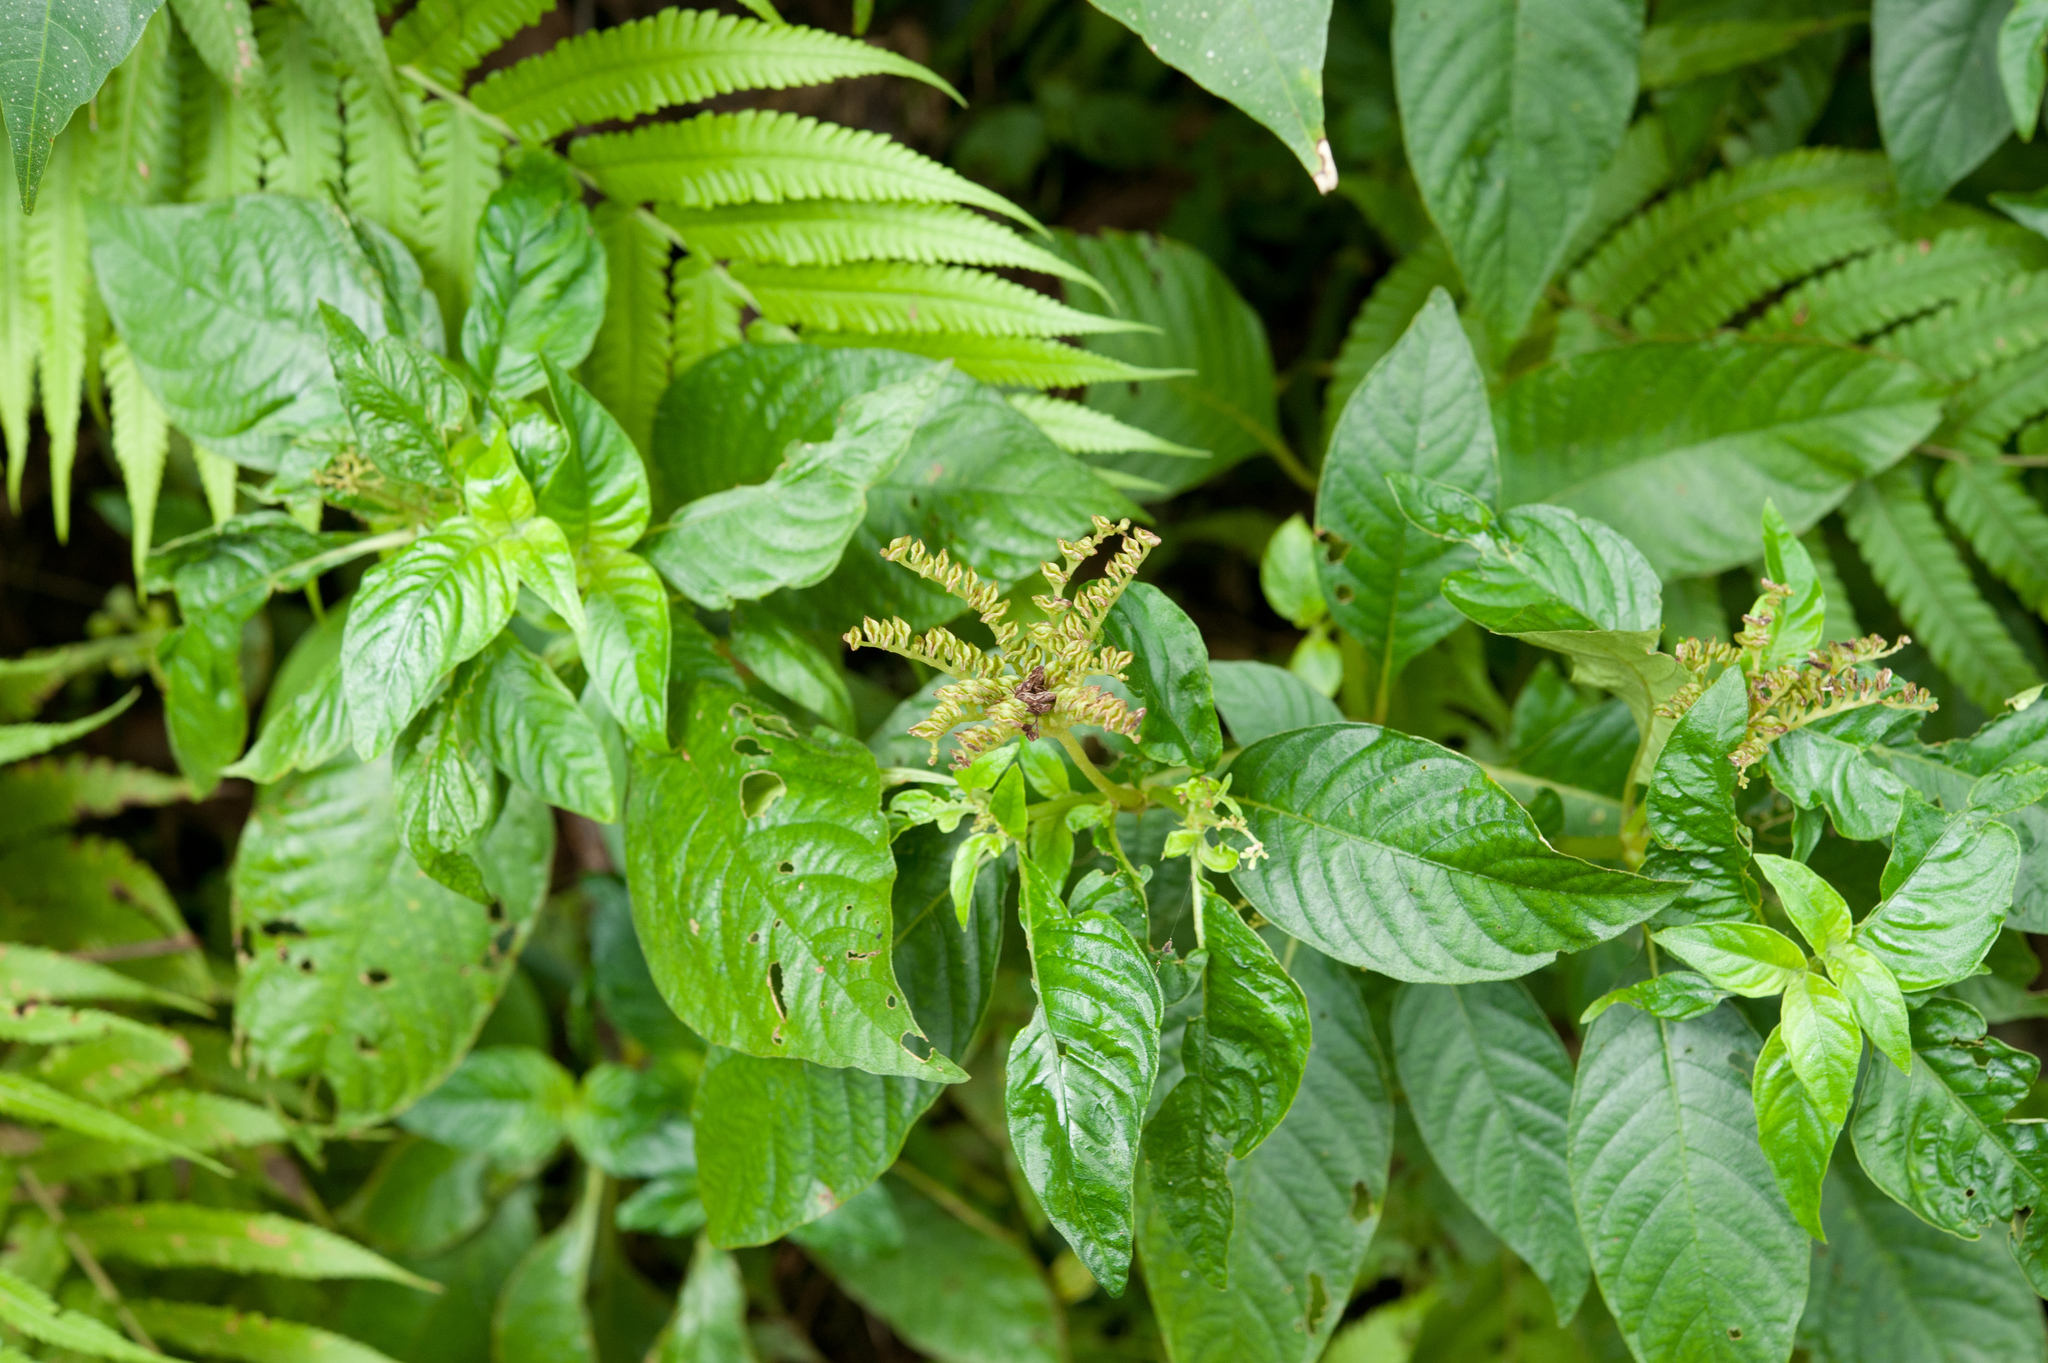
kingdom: Plantae
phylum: Tracheophyta
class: Magnoliopsida
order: Gentianales
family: Rubiaceae
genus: Ophiorrhiza
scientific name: Ophiorrhiza kuroiwae
